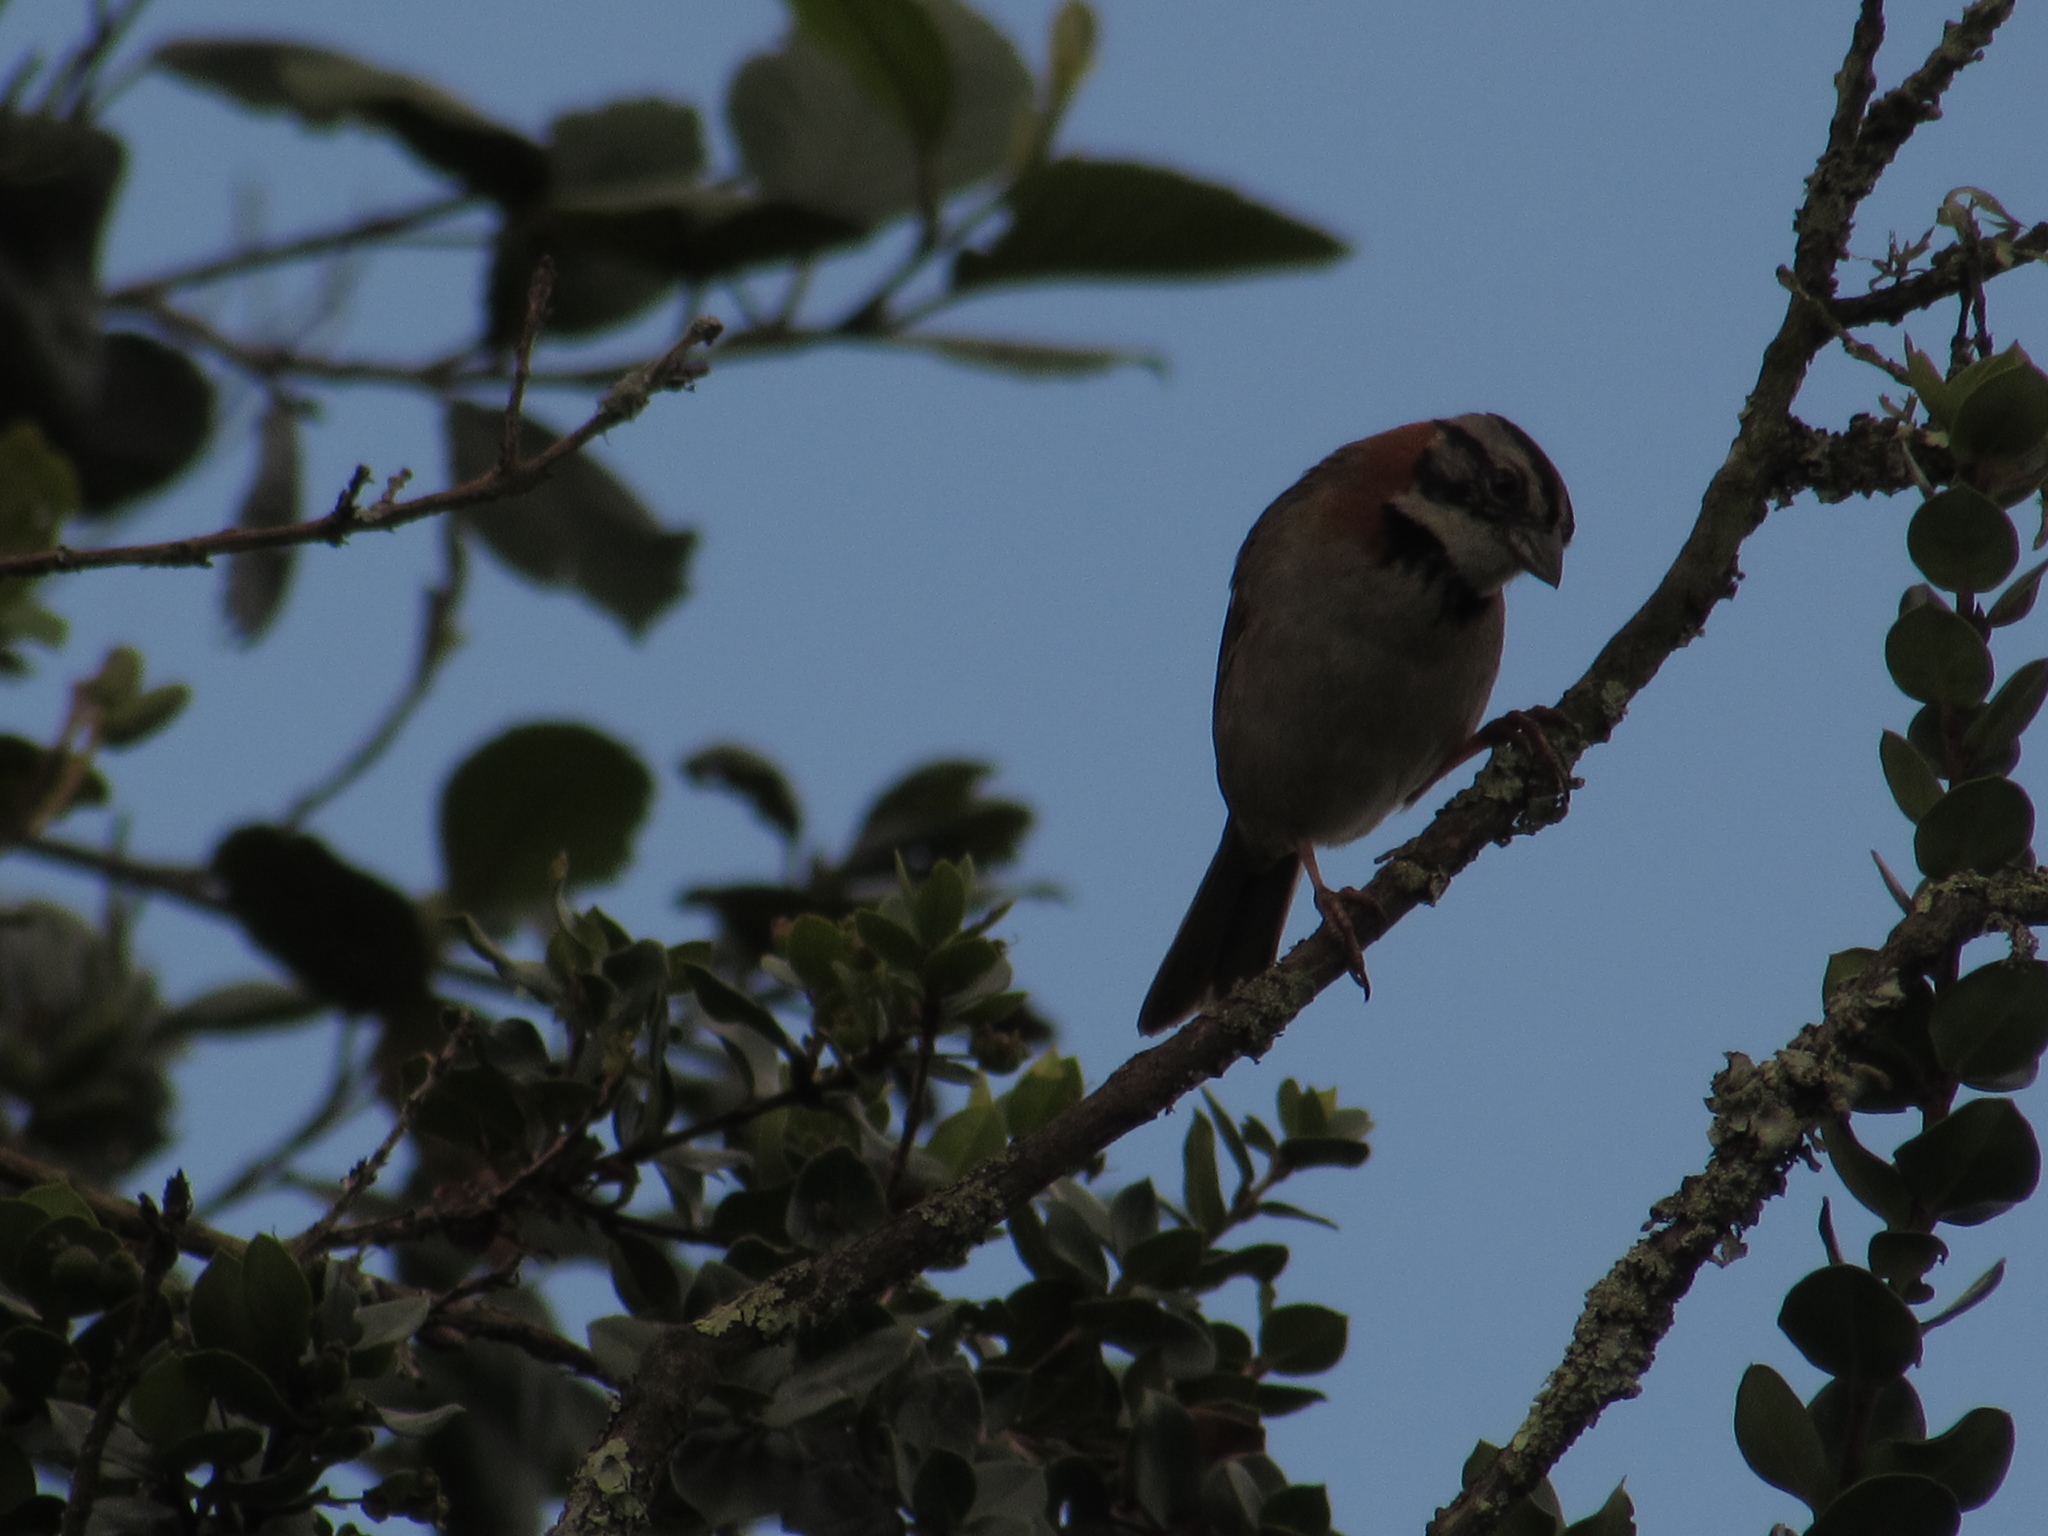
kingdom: Animalia
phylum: Chordata
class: Aves
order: Passeriformes
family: Passerellidae
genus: Zonotrichia
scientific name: Zonotrichia capensis
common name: Rufous-collared sparrow
